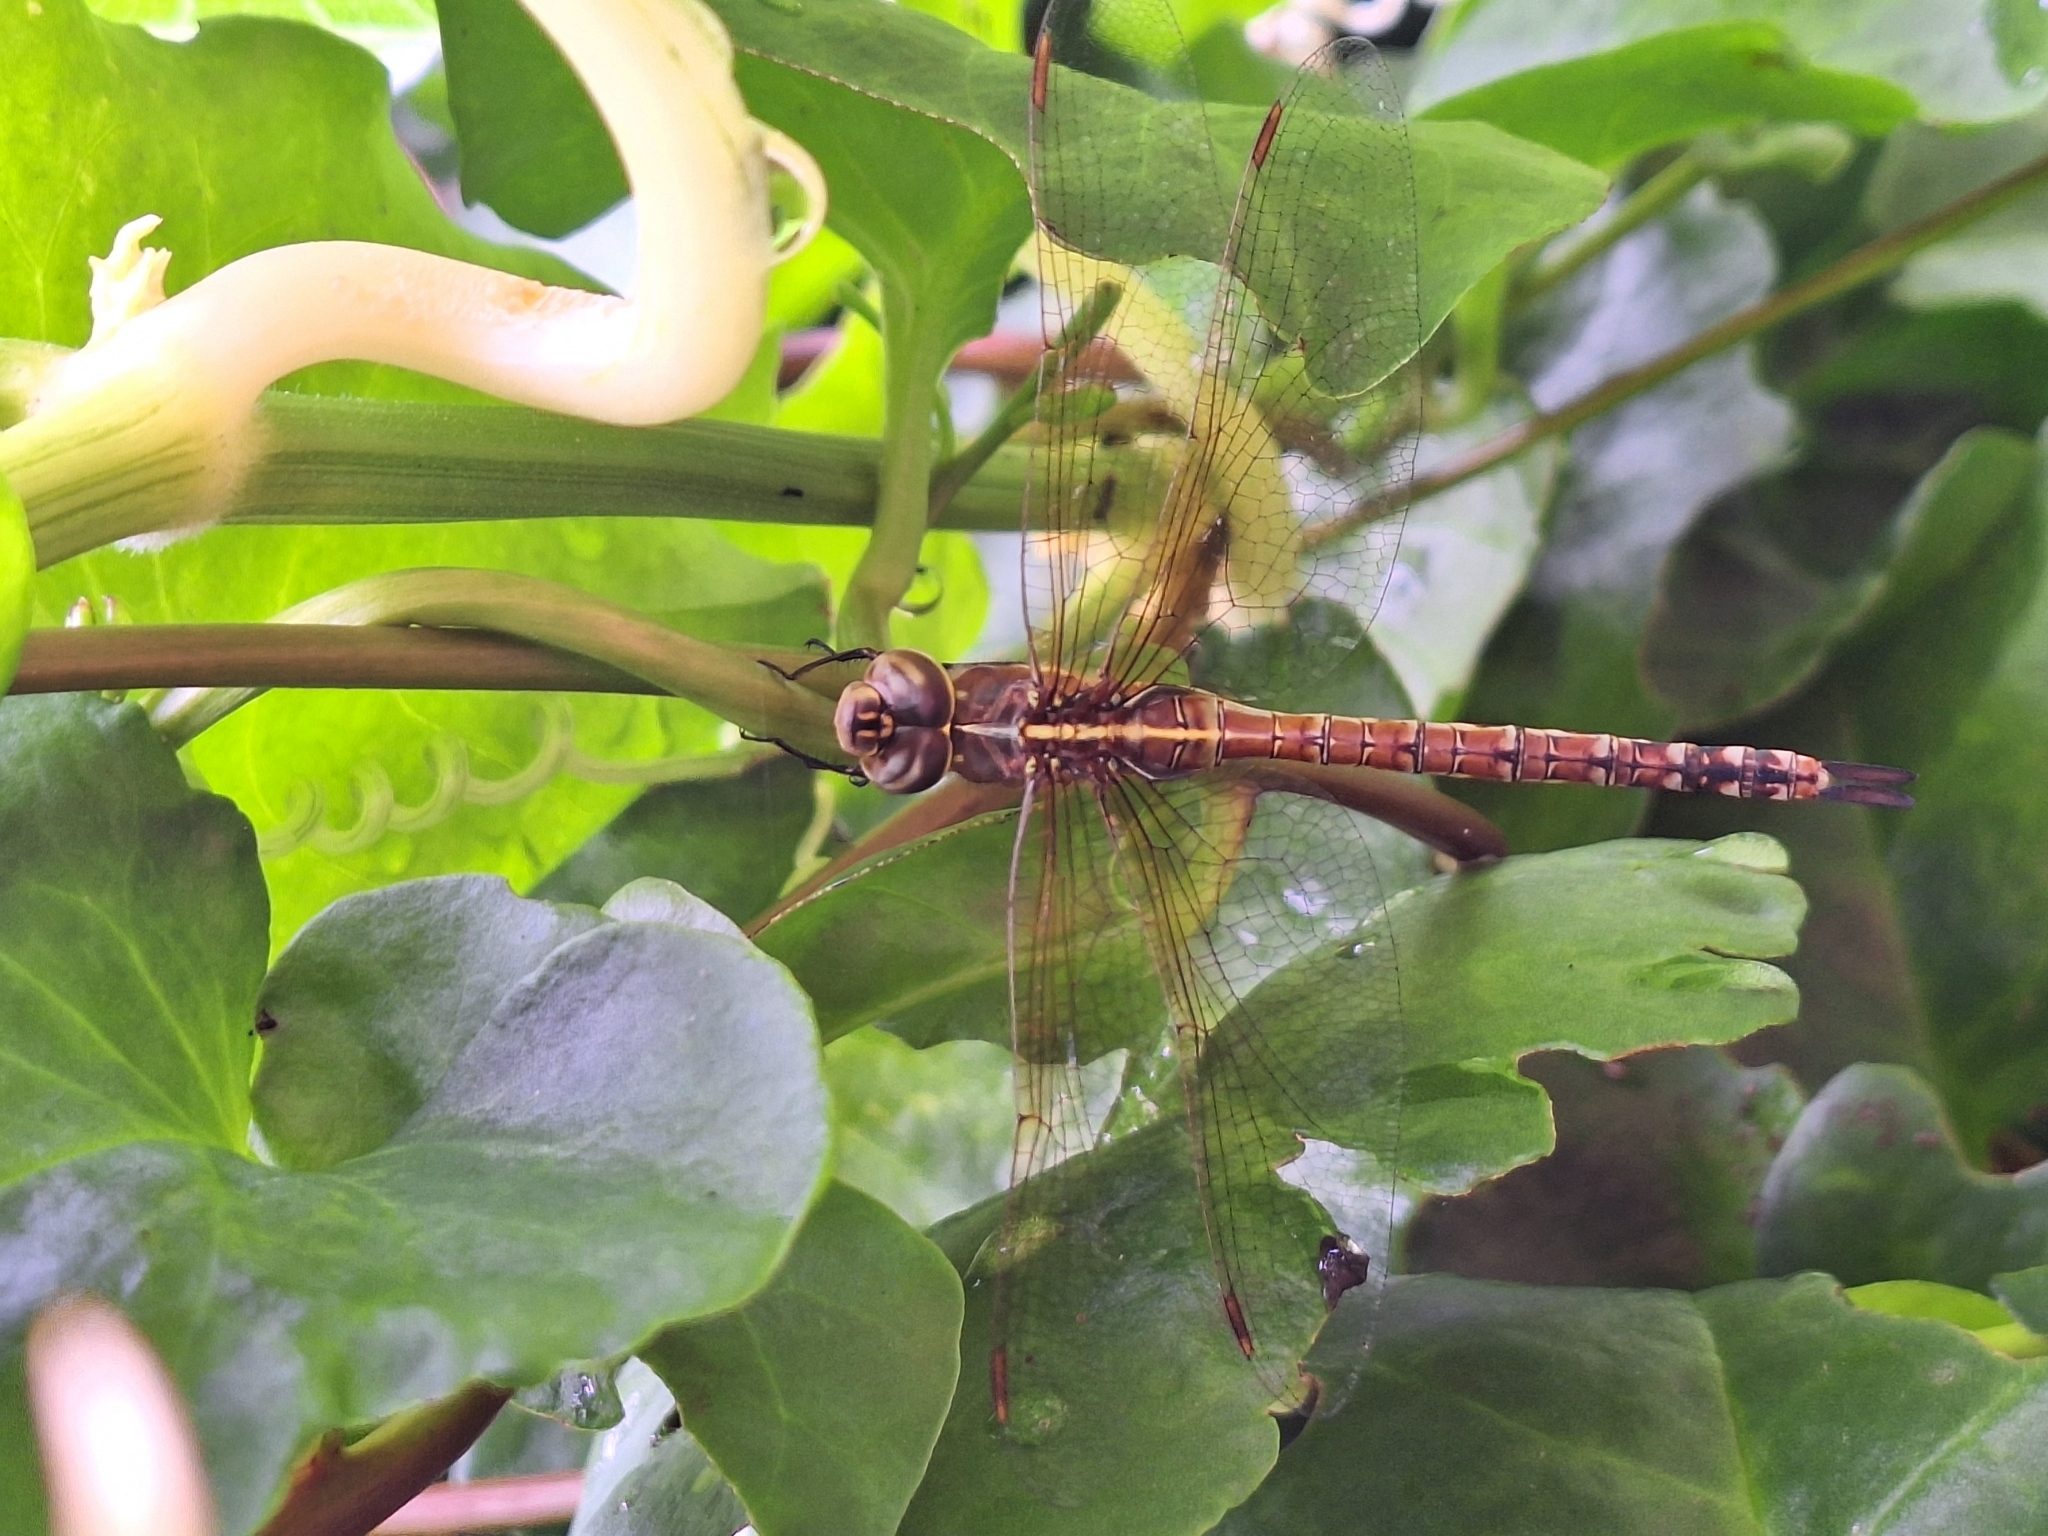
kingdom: Animalia
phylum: Arthropoda
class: Insecta
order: Odonata
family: Aeshnidae
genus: Rhionaeschna
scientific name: Rhionaeschna bonariensis
